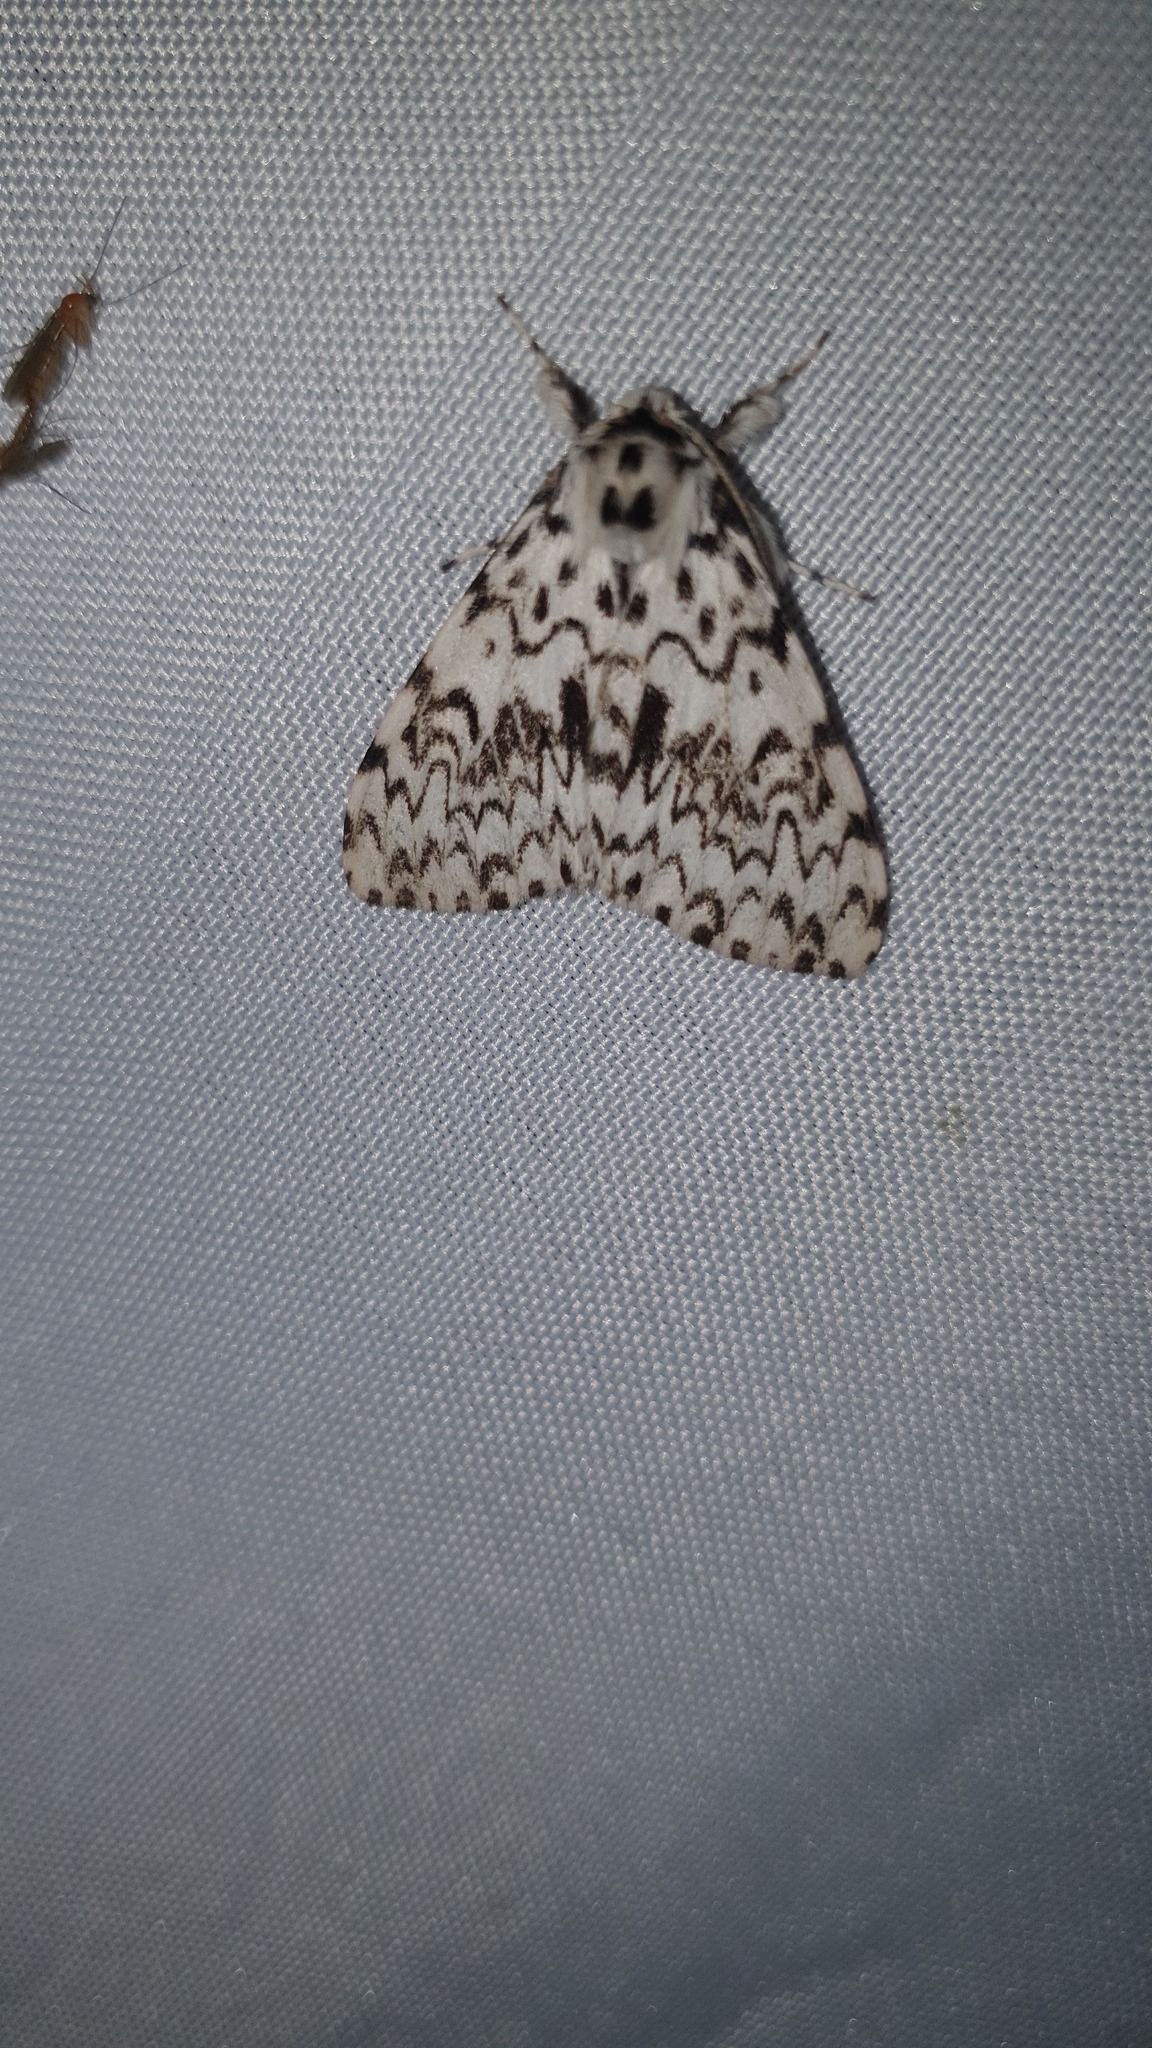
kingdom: Animalia
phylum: Arthropoda
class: Insecta
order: Lepidoptera
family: Erebidae
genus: Lymantria
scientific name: Lymantria monacha
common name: Black arches
